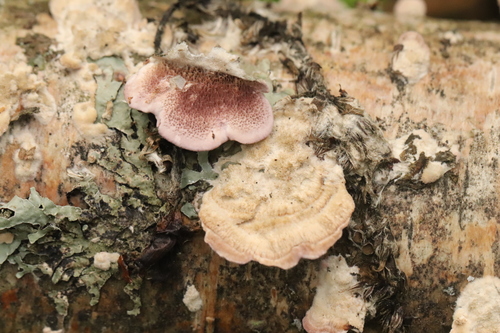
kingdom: Fungi
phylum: Basidiomycota
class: Agaricomycetes
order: Hymenochaetales
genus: Trichaptum
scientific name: Trichaptum biforme
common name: Violet-toothed polypore
